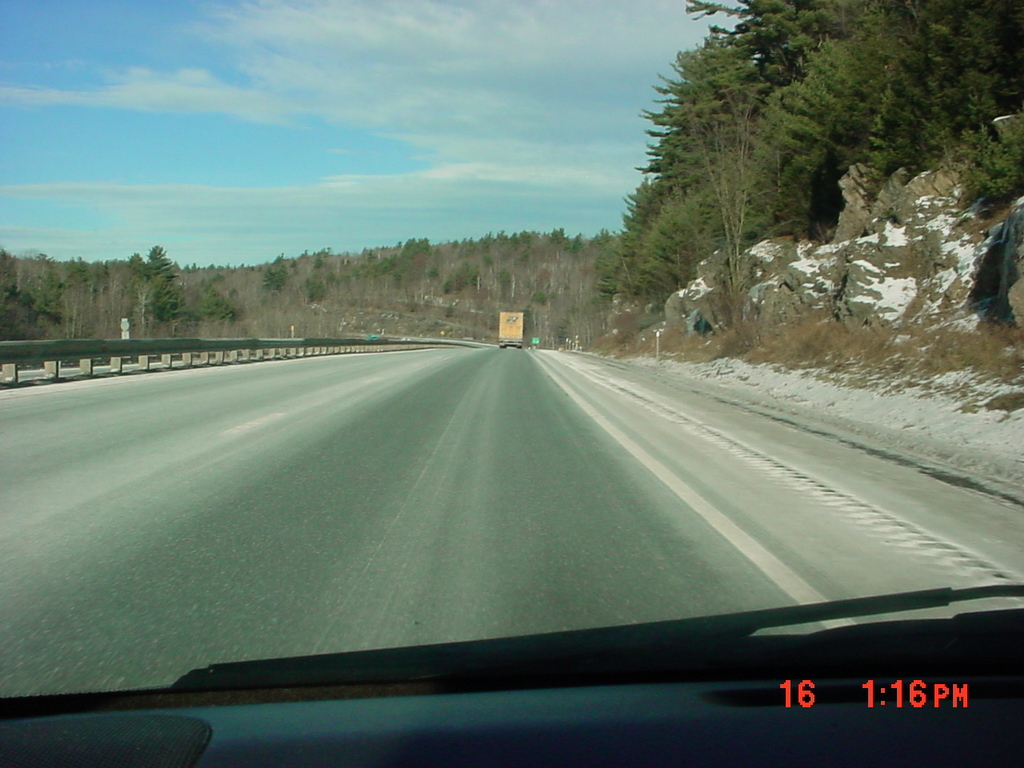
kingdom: Plantae
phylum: Tracheophyta
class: Pinopsida
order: Pinales
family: Pinaceae
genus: Pinus
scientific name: Pinus strobus
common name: Weymouth pine
